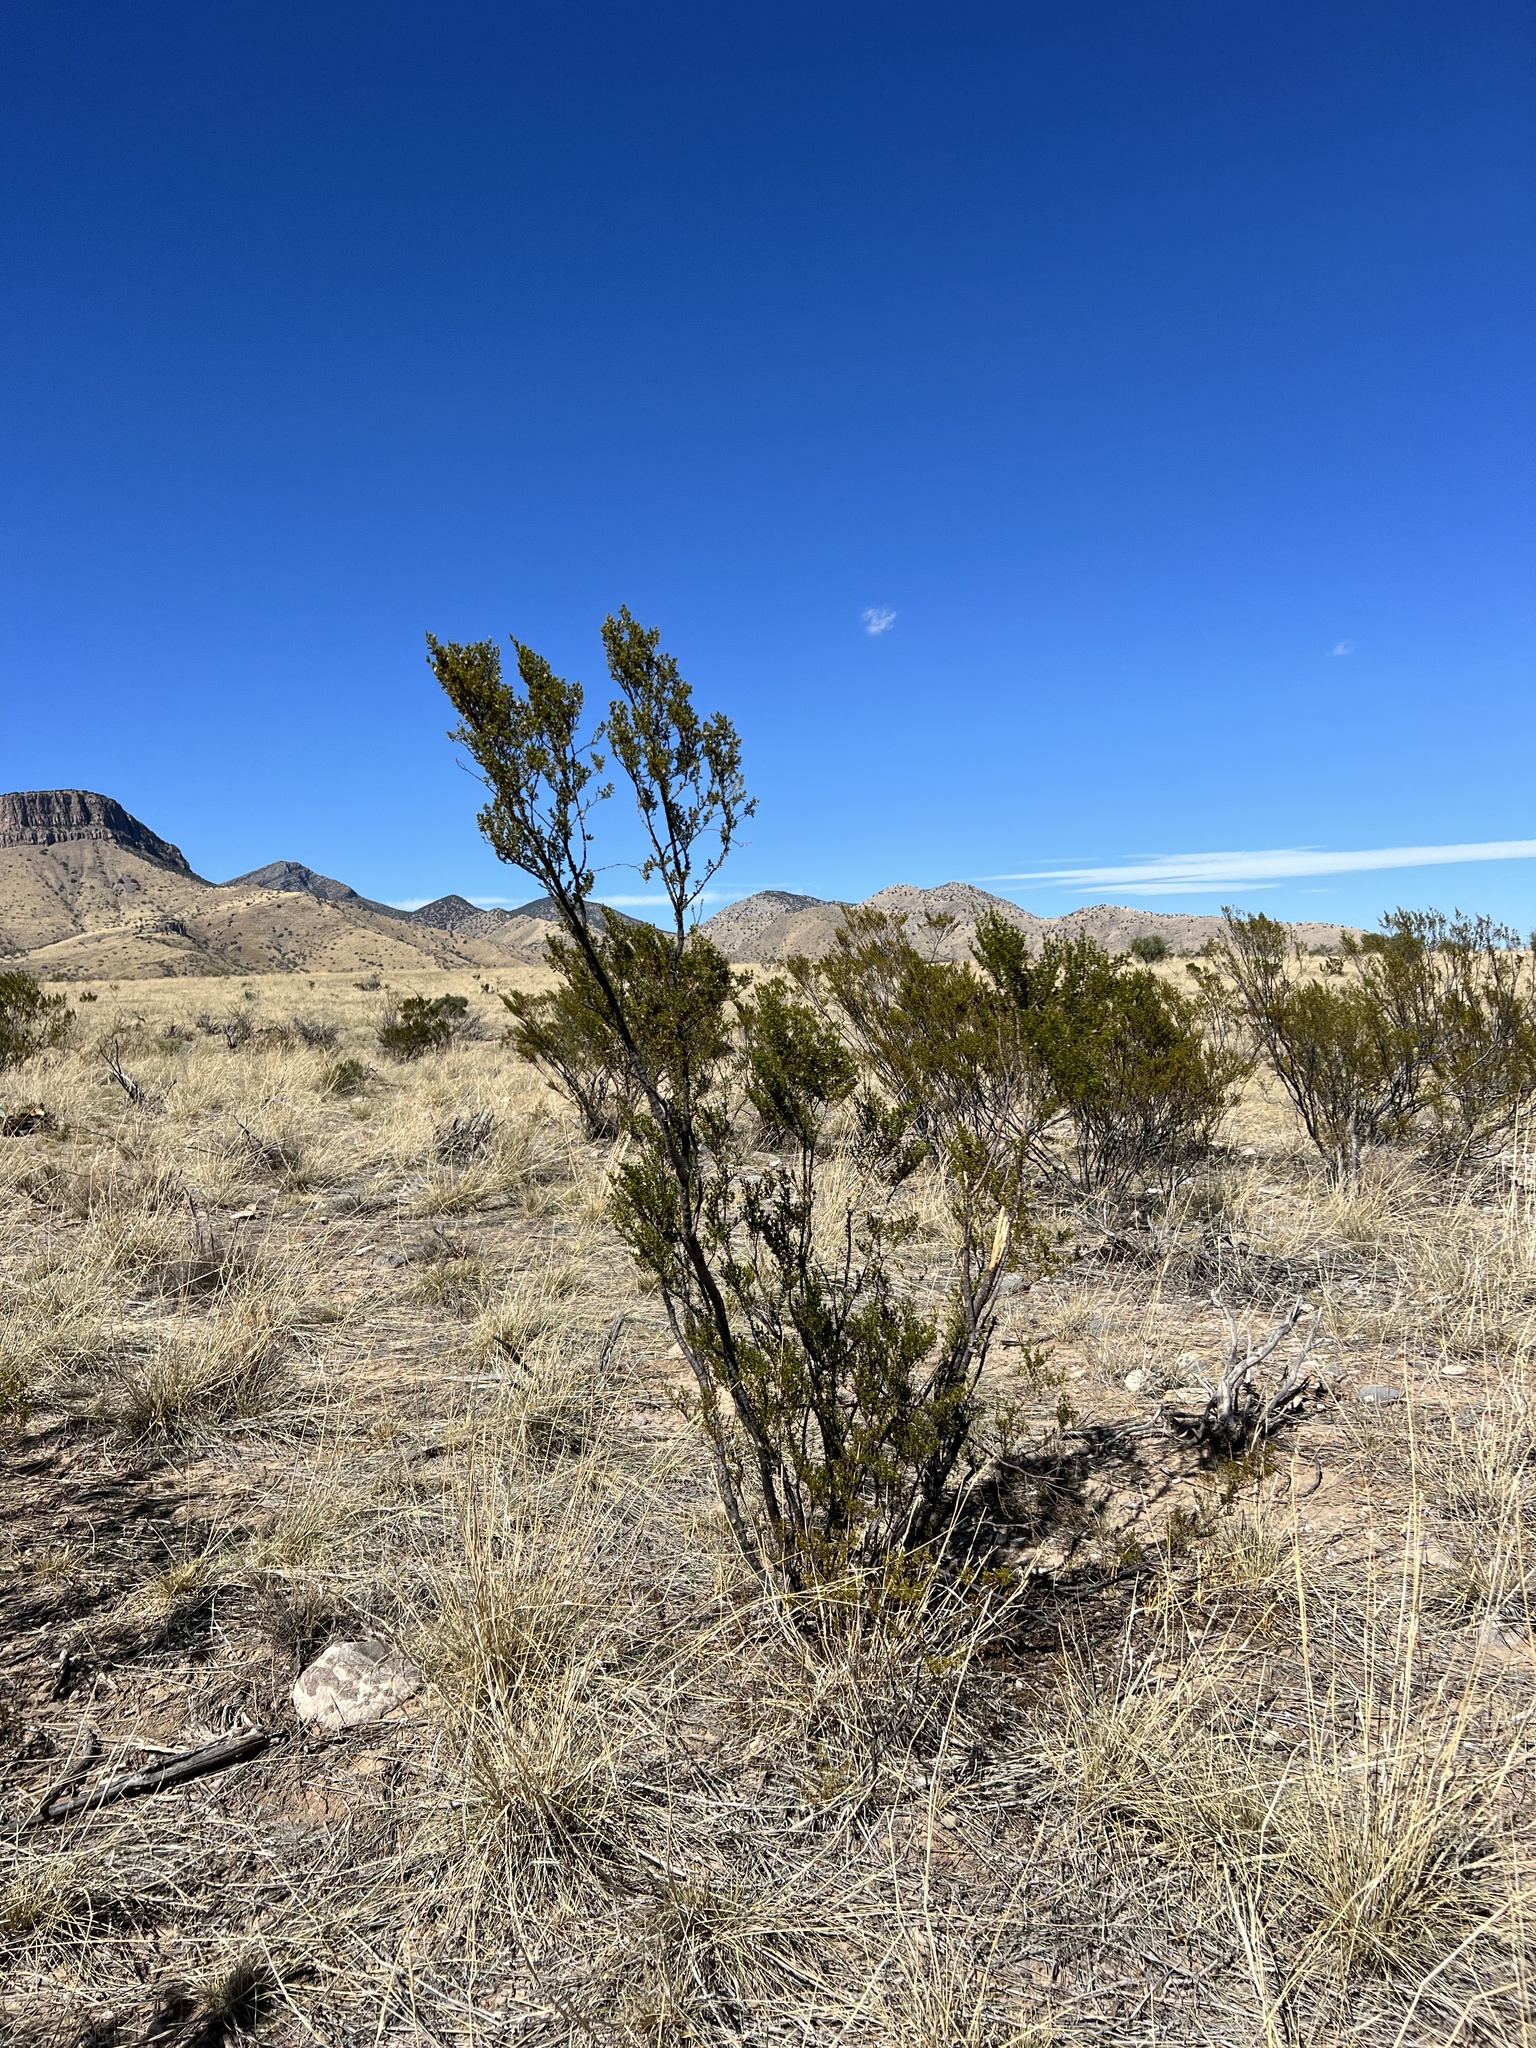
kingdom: Plantae
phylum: Tracheophyta
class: Magnoliopsida
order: Zygophyllales
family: Zygophyllaceae
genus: Larrea
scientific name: Larrea tridentata
